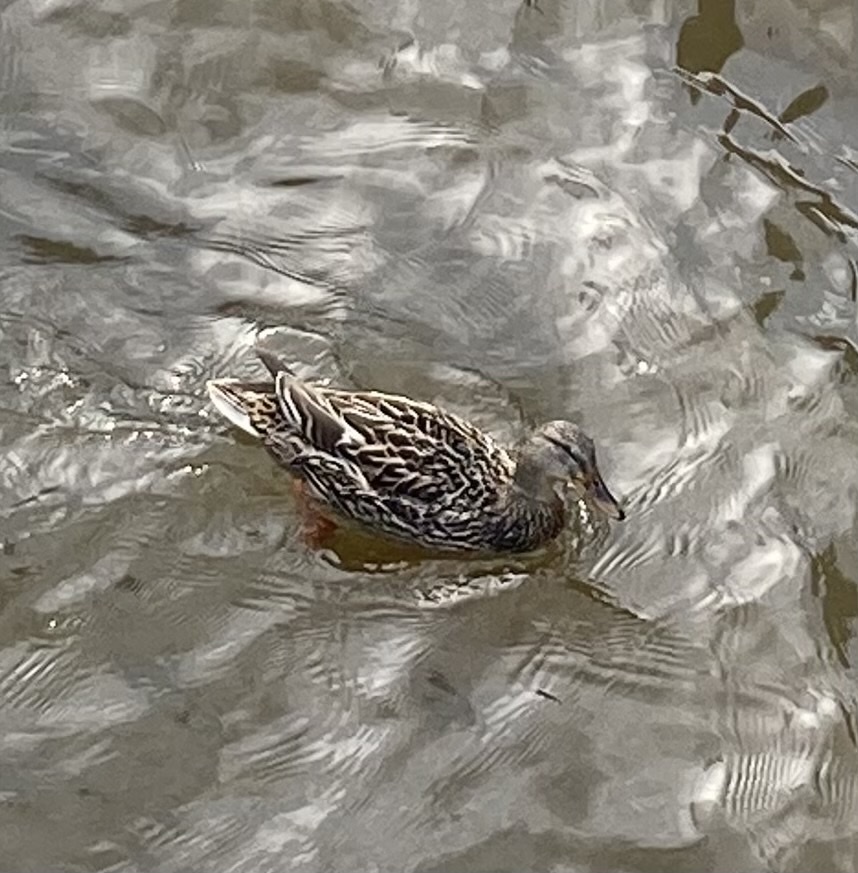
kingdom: Animalia
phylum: Chordata
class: Aves
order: Anseriformes
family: Anatidae
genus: Anas
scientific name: Anas platyrhynchos
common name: Mallard
